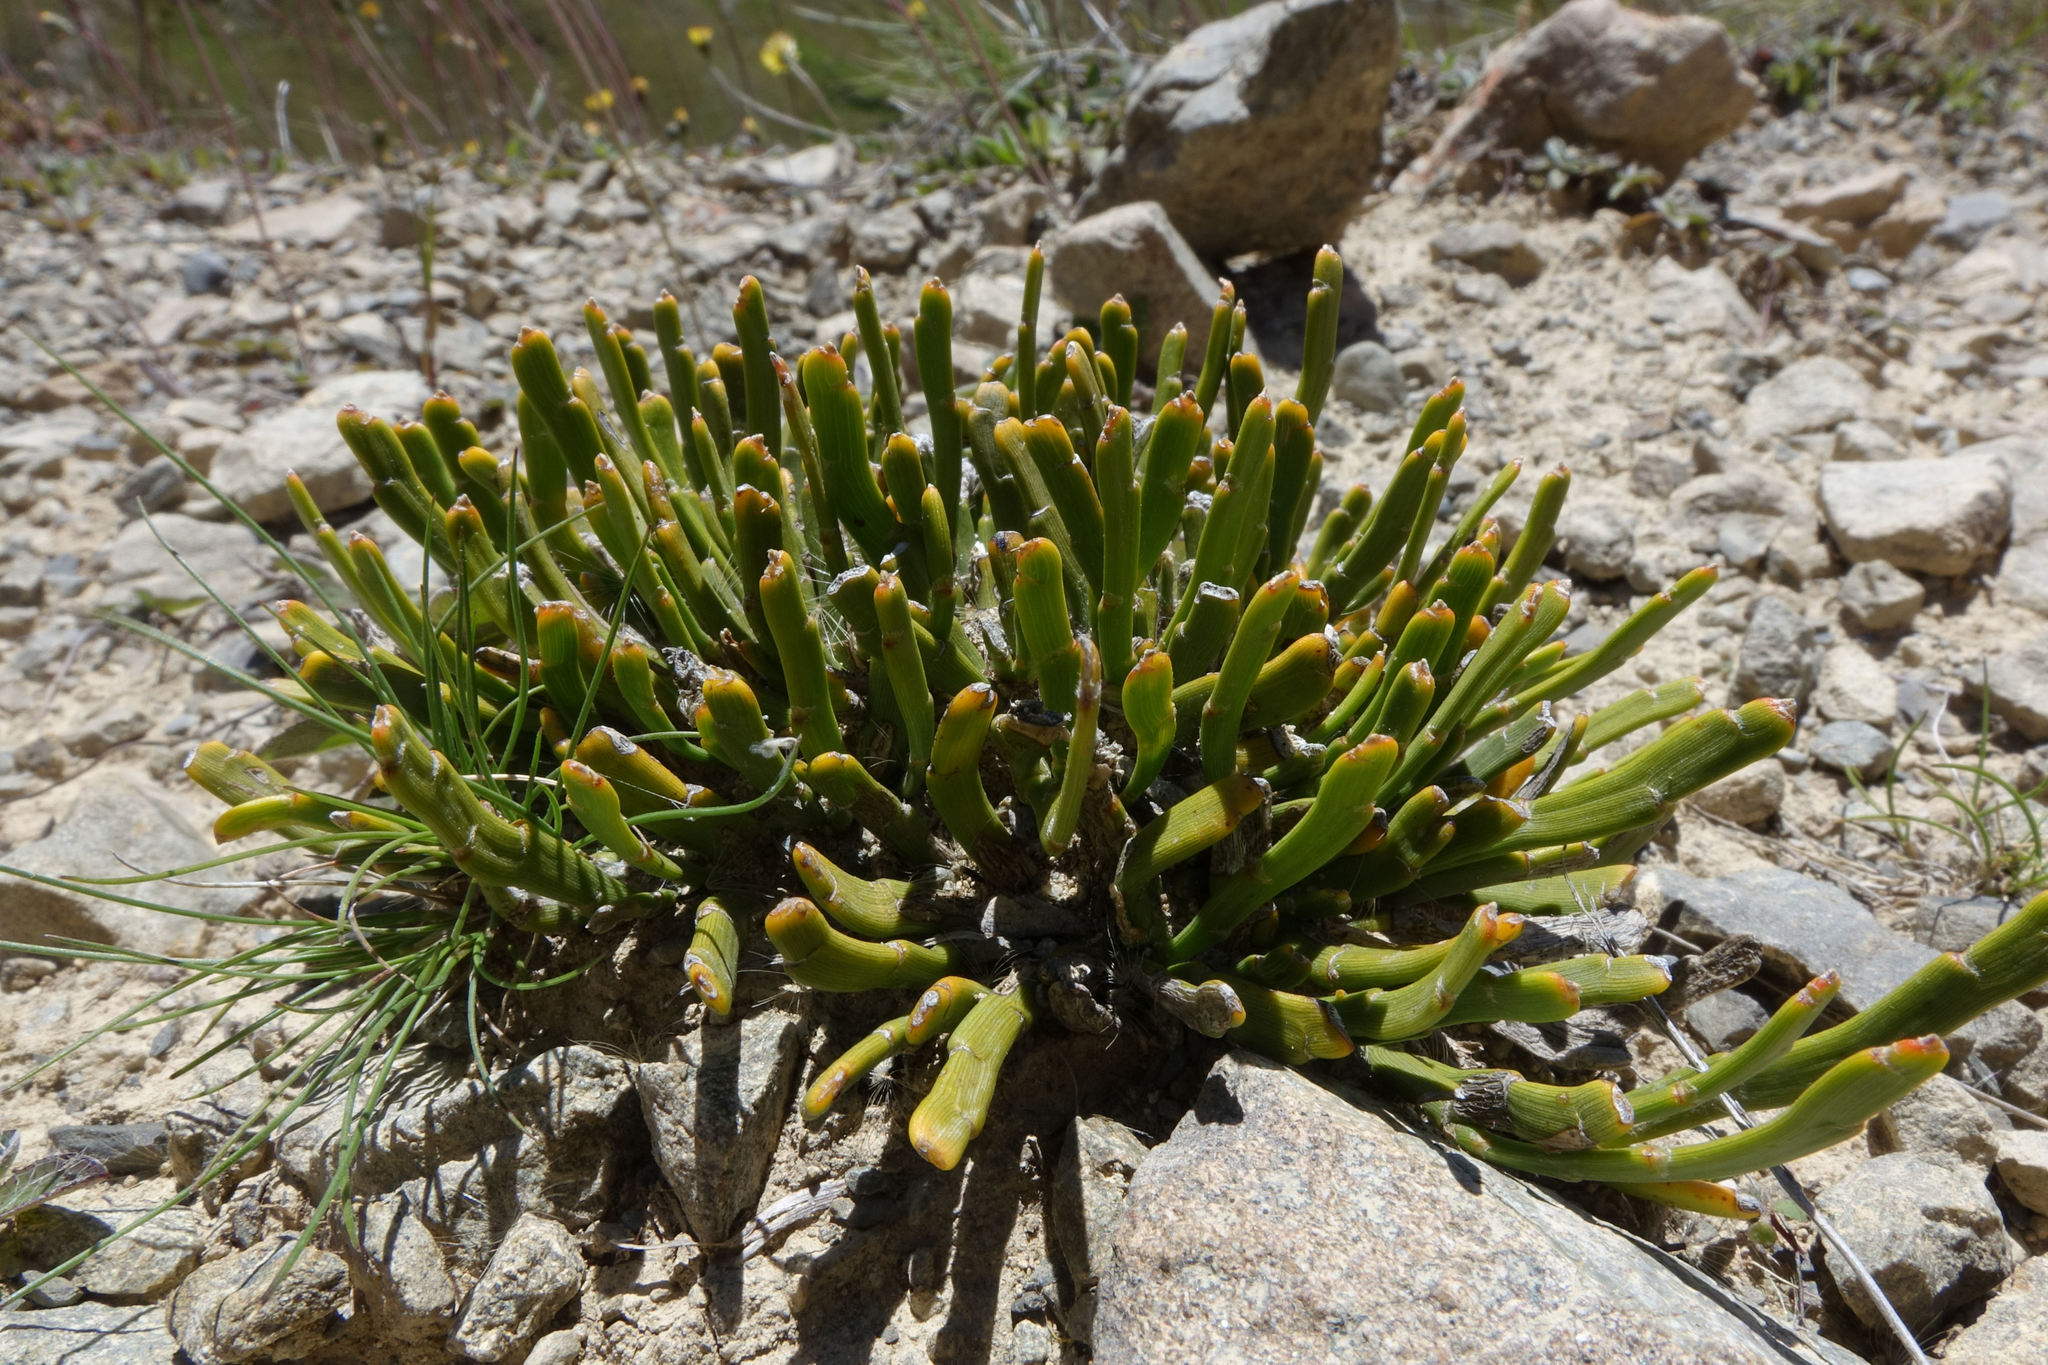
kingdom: Plantae
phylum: Tracheophyta
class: Magnoliopsida
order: Fabales
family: Fabaceae
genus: Carmichaelia
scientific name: Carmichaelia monroi
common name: Stout dwarf broom
